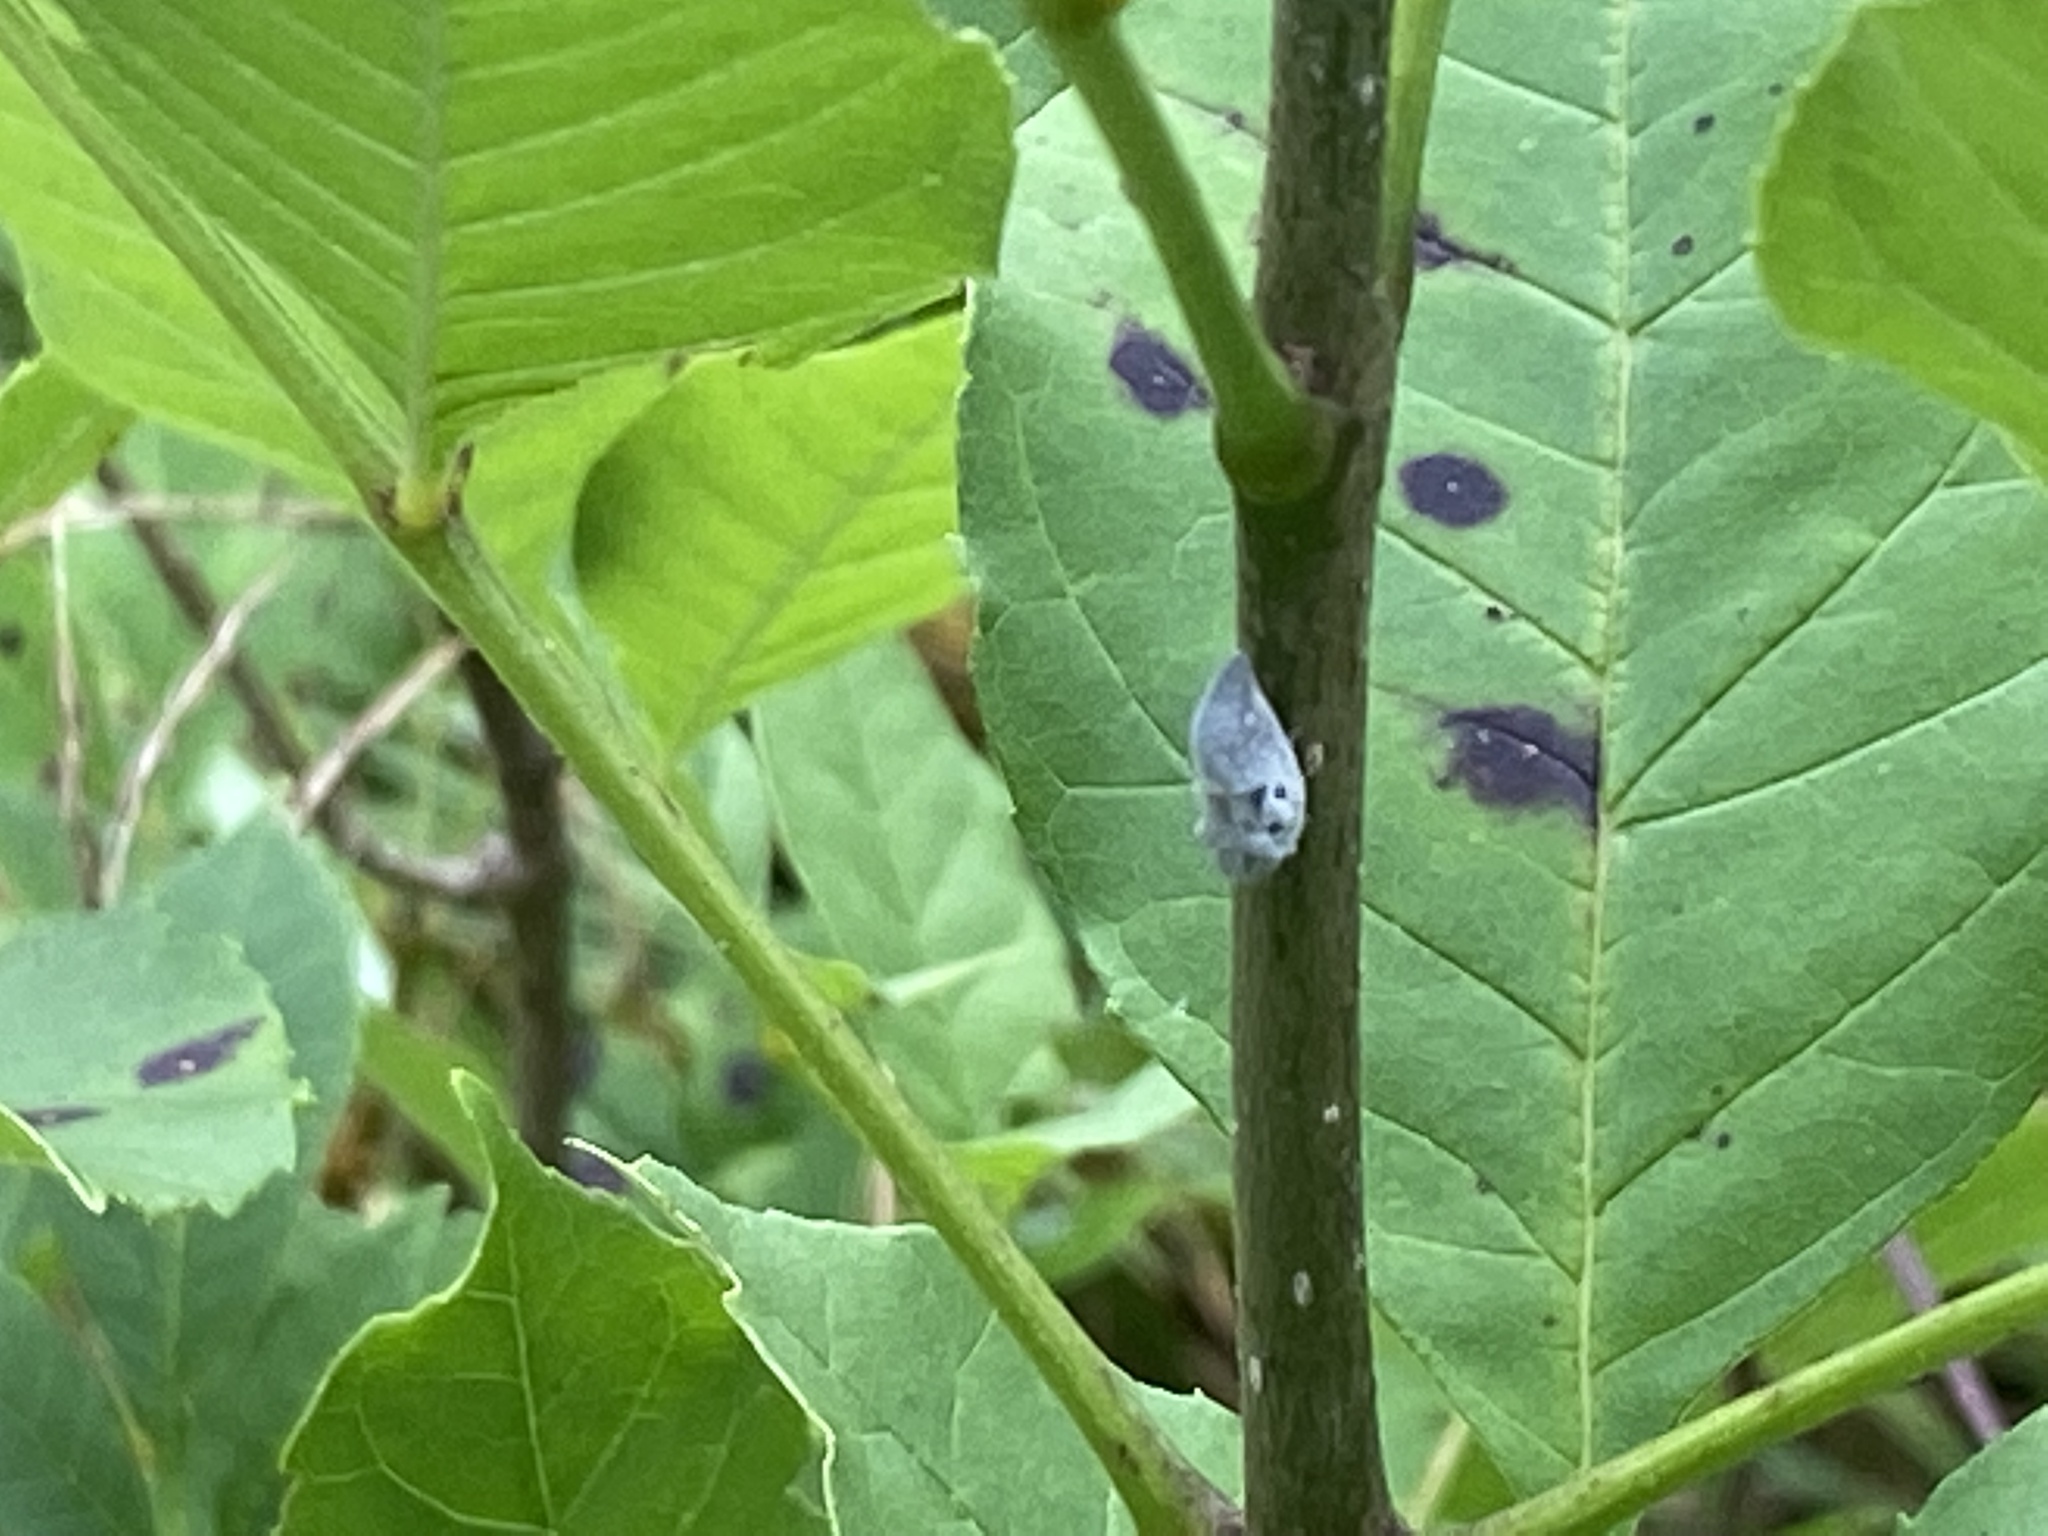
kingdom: Animalia
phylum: Arthropoda
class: Insecta
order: Hemiptera
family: Flatidae
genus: Metcalfa
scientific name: Metcalfa pruinosa
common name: Citrus flatid planthopper
